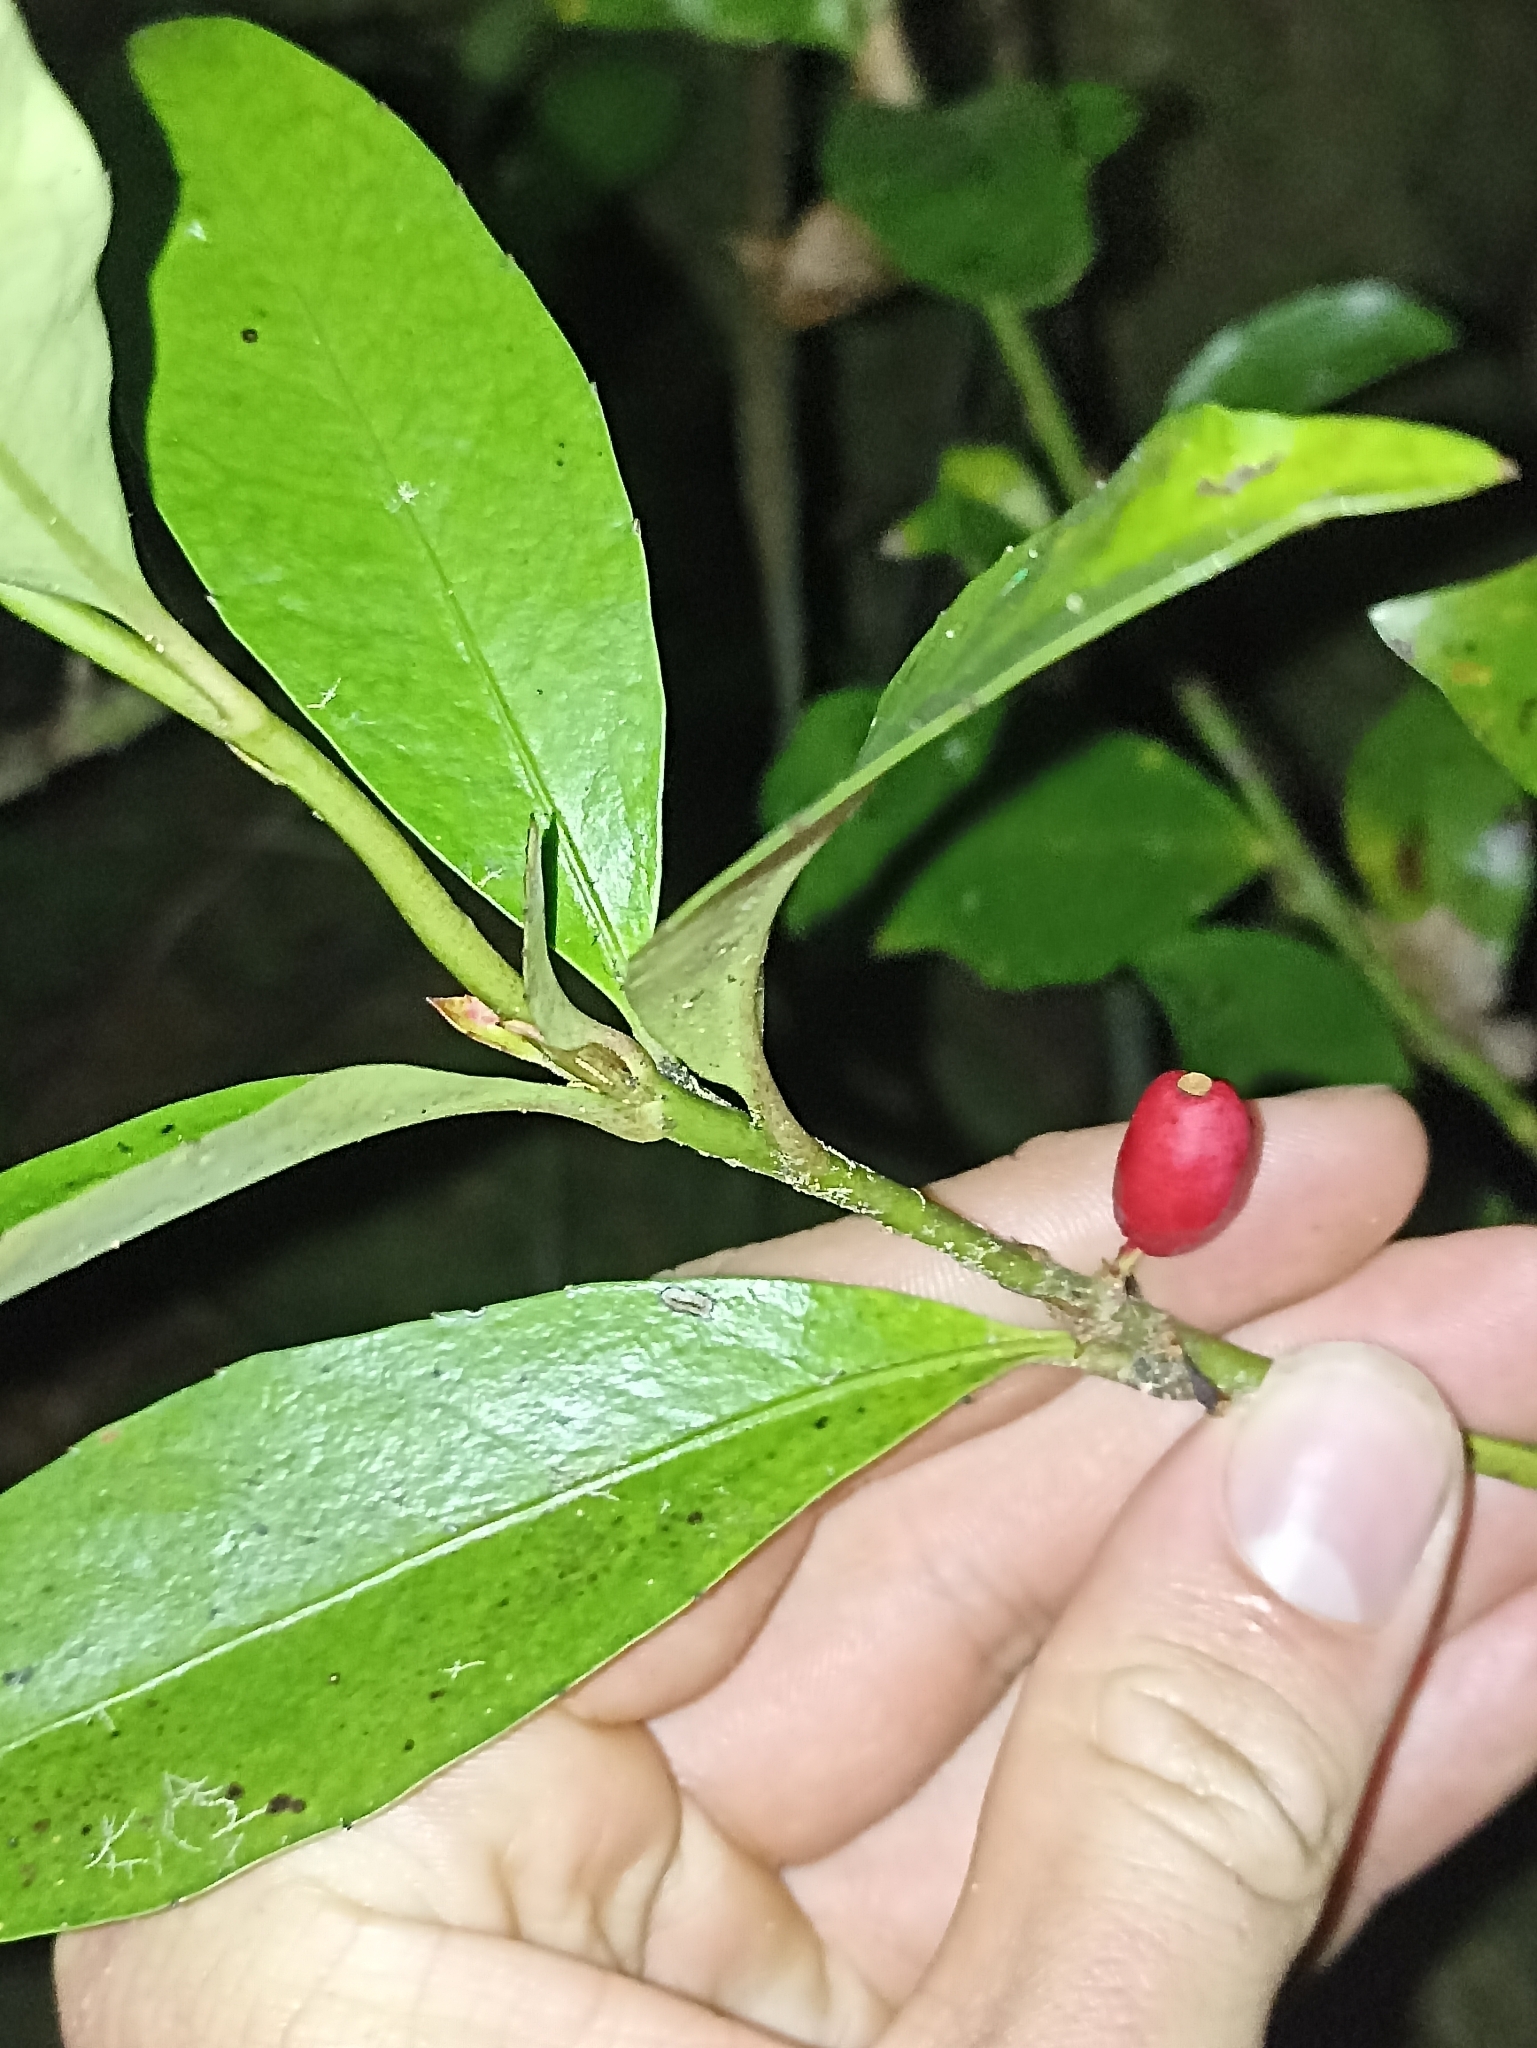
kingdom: Plantae
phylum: Tracheophyta
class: Magnoliopsida
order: Asterales
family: Alseuosmiaceae
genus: Alseuosmia
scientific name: Alseuosmia turneri
